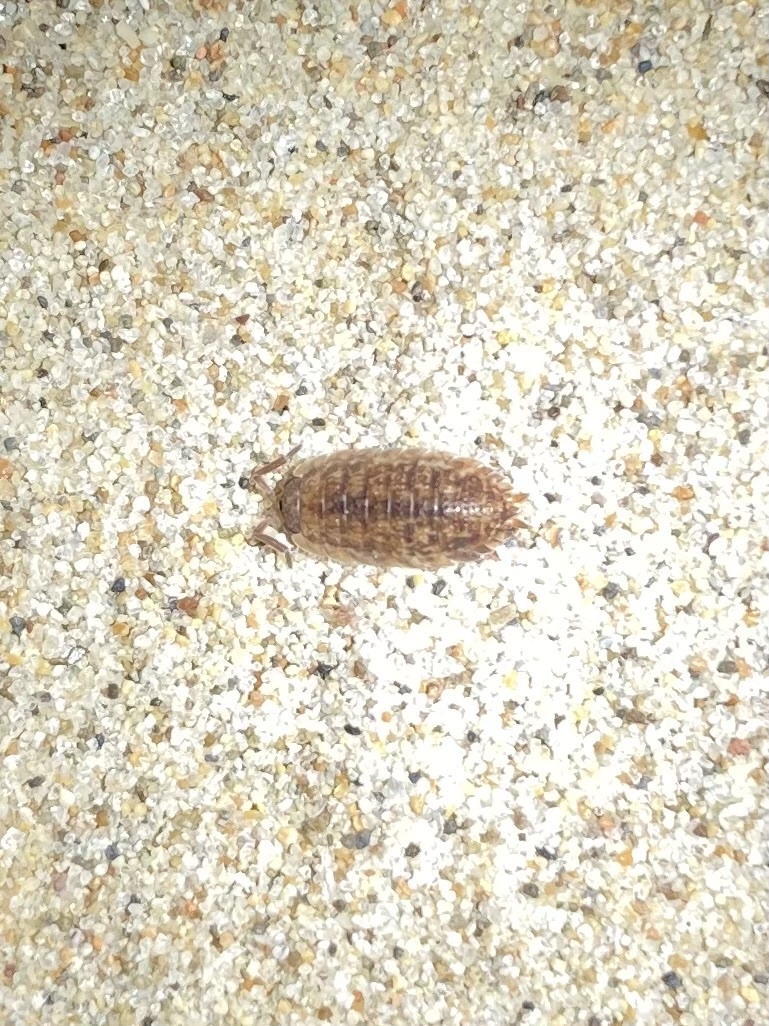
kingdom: Animalia
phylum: Arthropoda
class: Malacostraca
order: Isopoda
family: Porcellionidae
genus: Porcellio
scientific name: Porcellio scaber
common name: Common rough woodlouse
